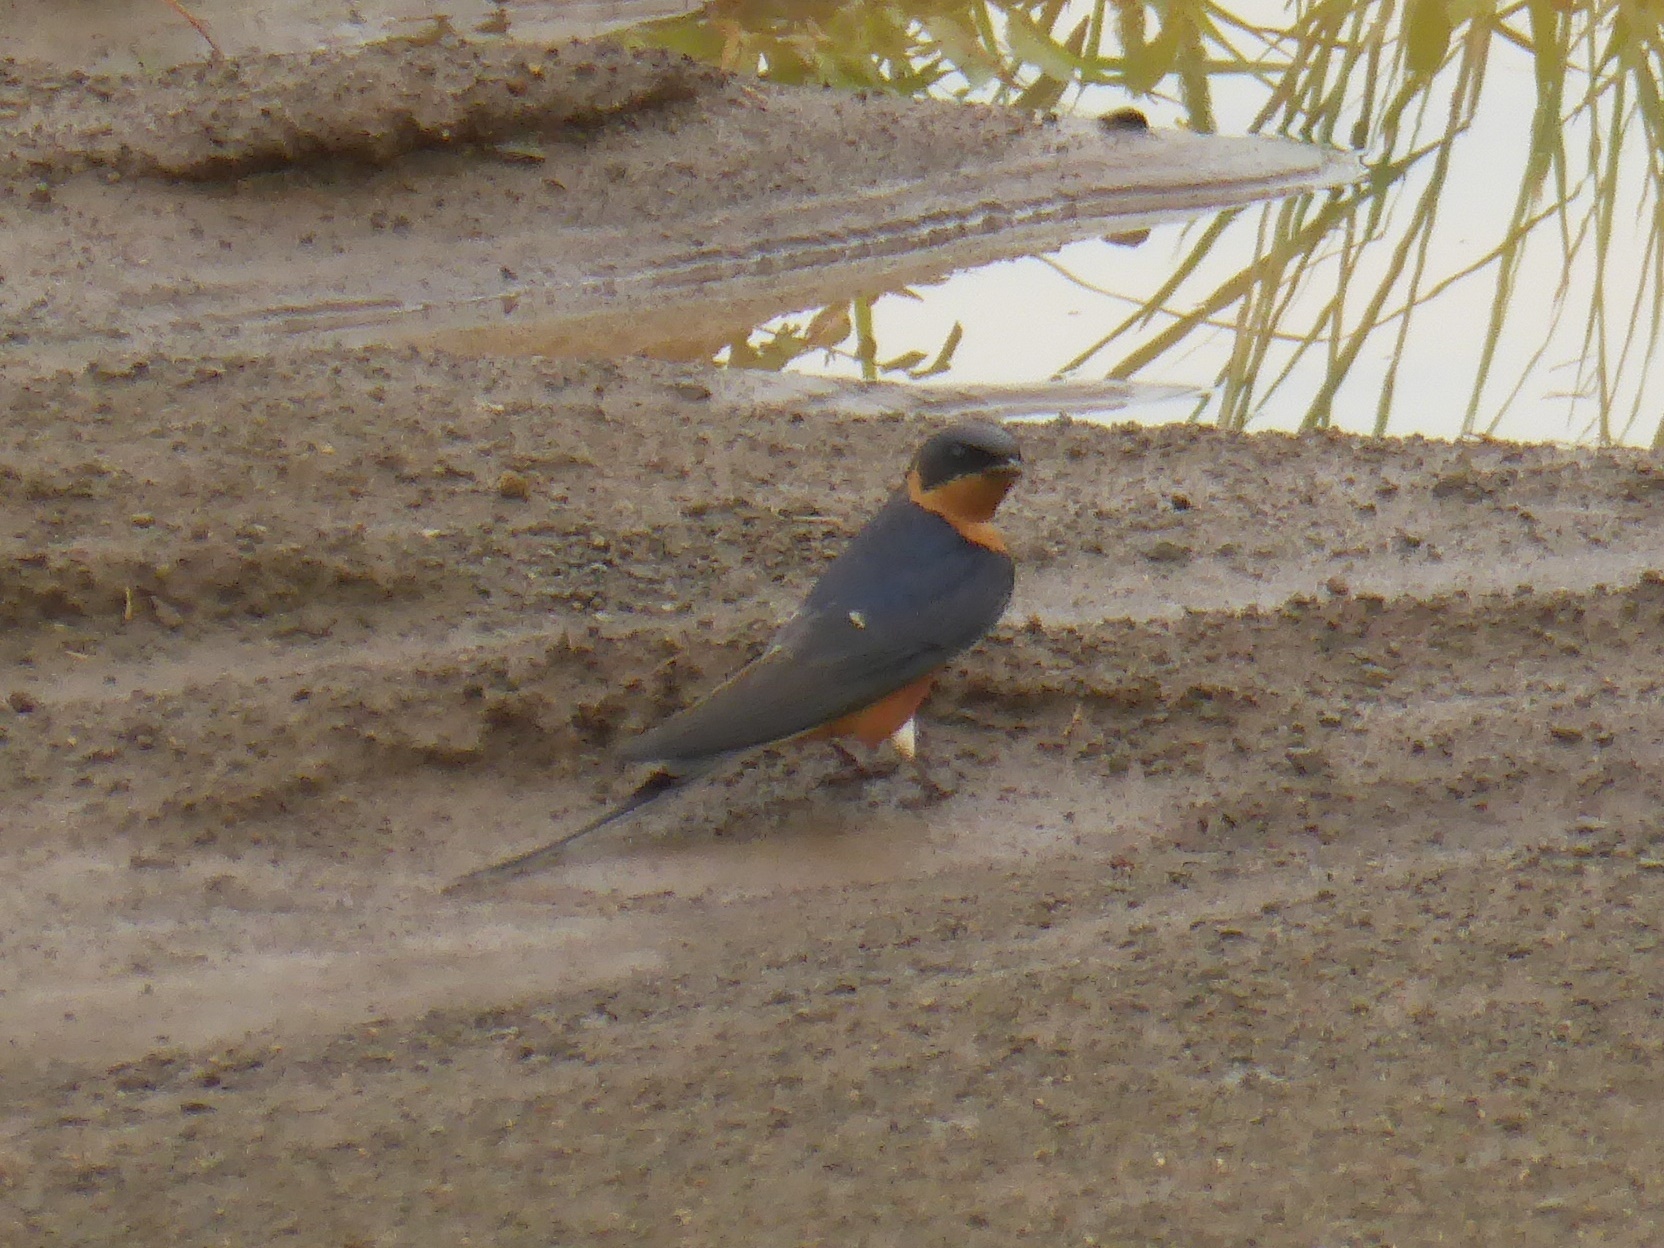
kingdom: Animalia
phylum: Chordata
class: Aves
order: Passeriformes
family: Hirundinidae
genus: Cecropis
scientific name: Cecropis semirufa
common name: Red-breasted swallow
